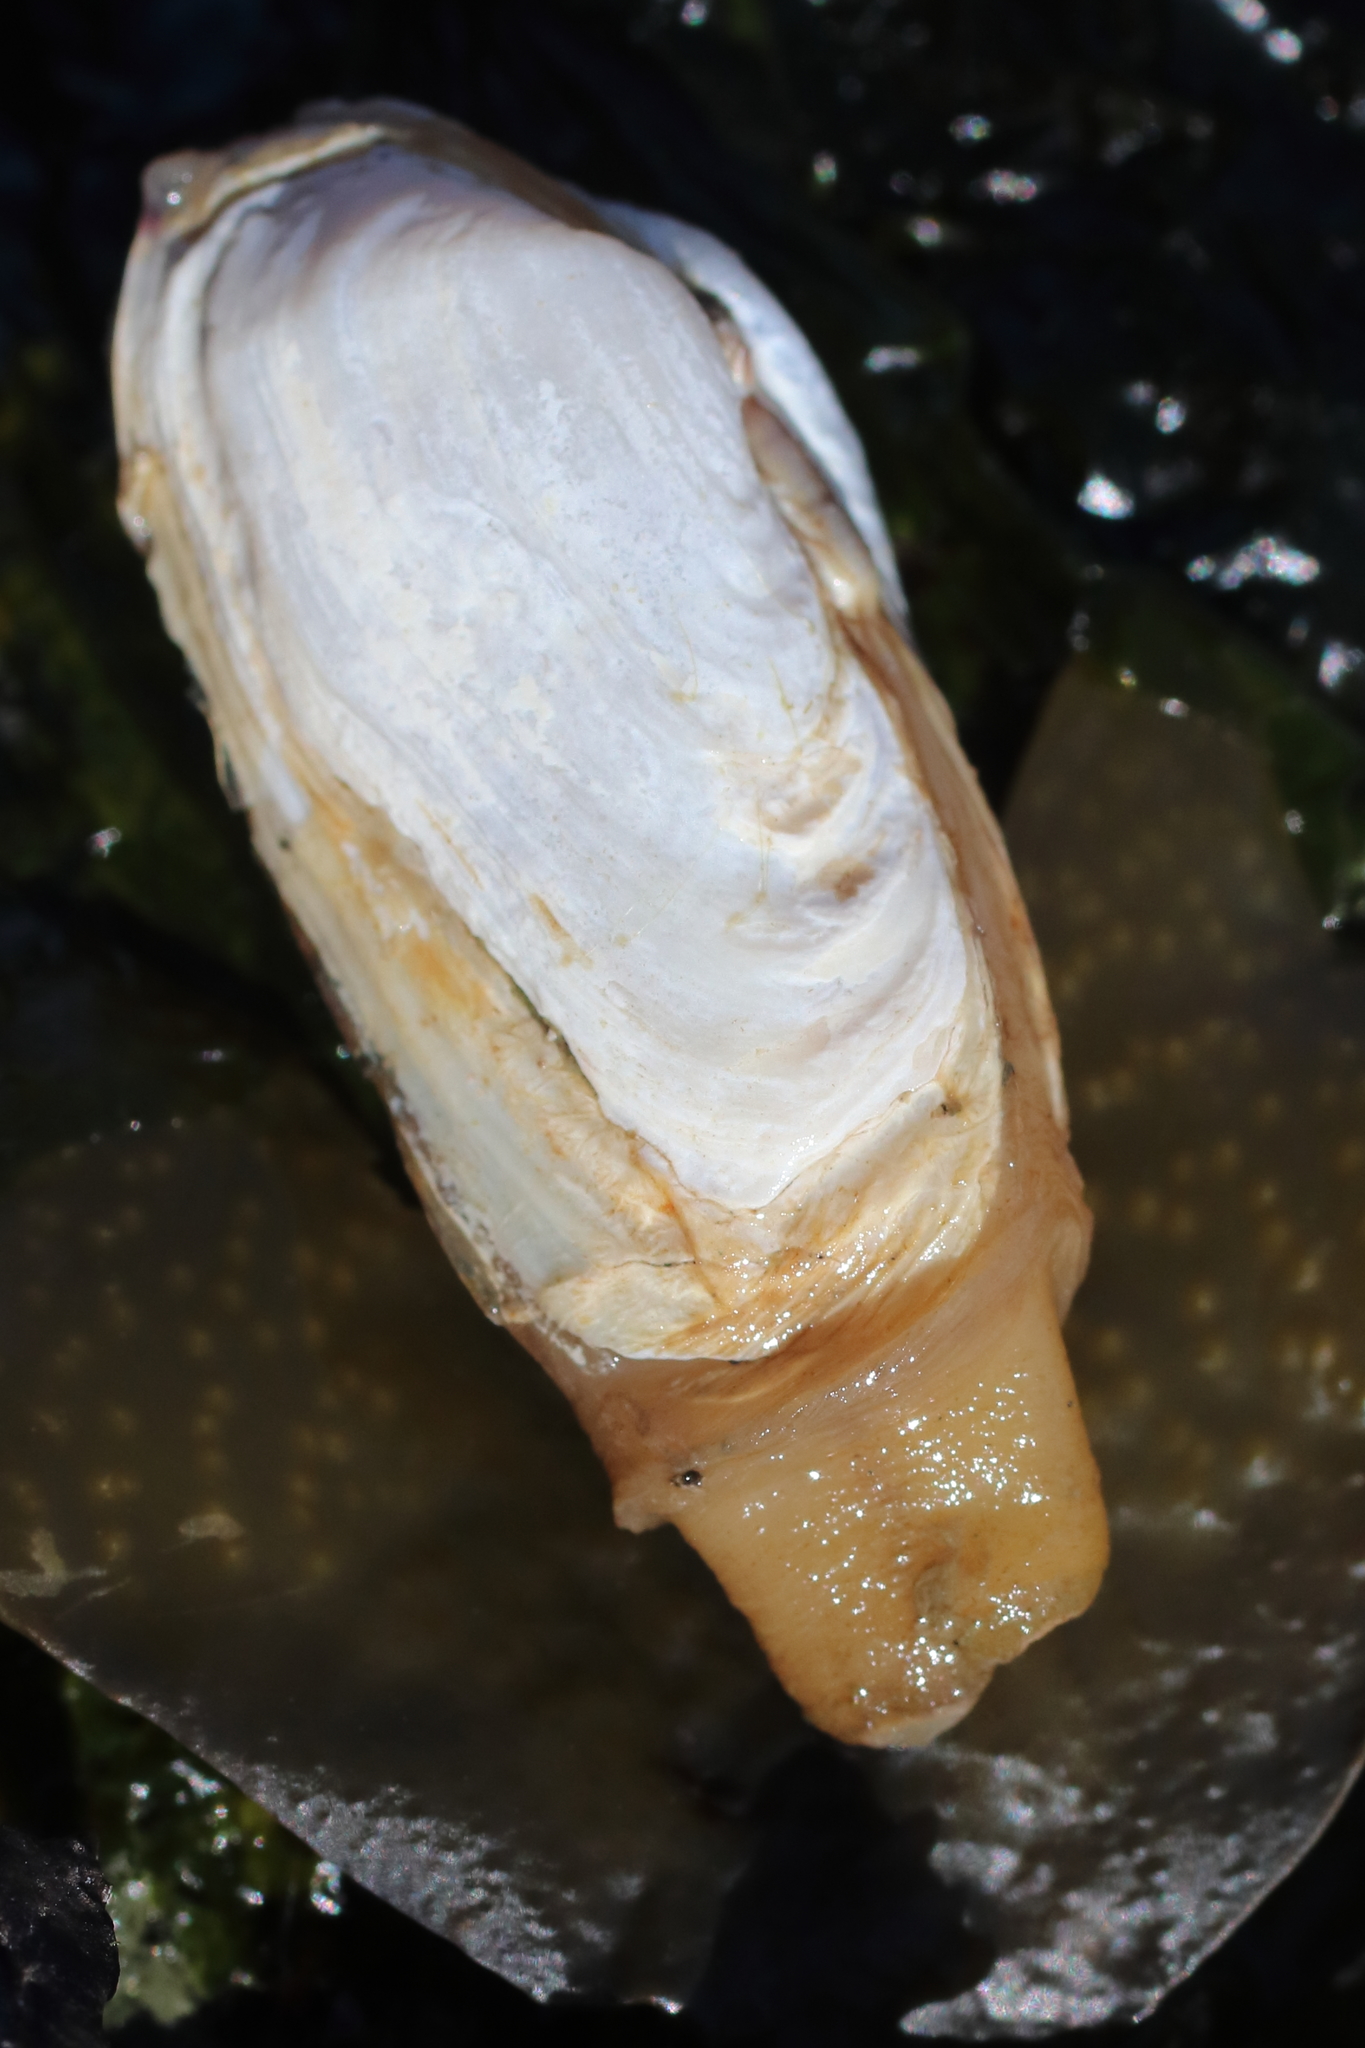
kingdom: Animalia
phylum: Mollusca
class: Bivalvia
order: Adapedonta
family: Hiatellidae
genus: Hiatella
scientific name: Hiatella arctica
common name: Arctic hiatella
